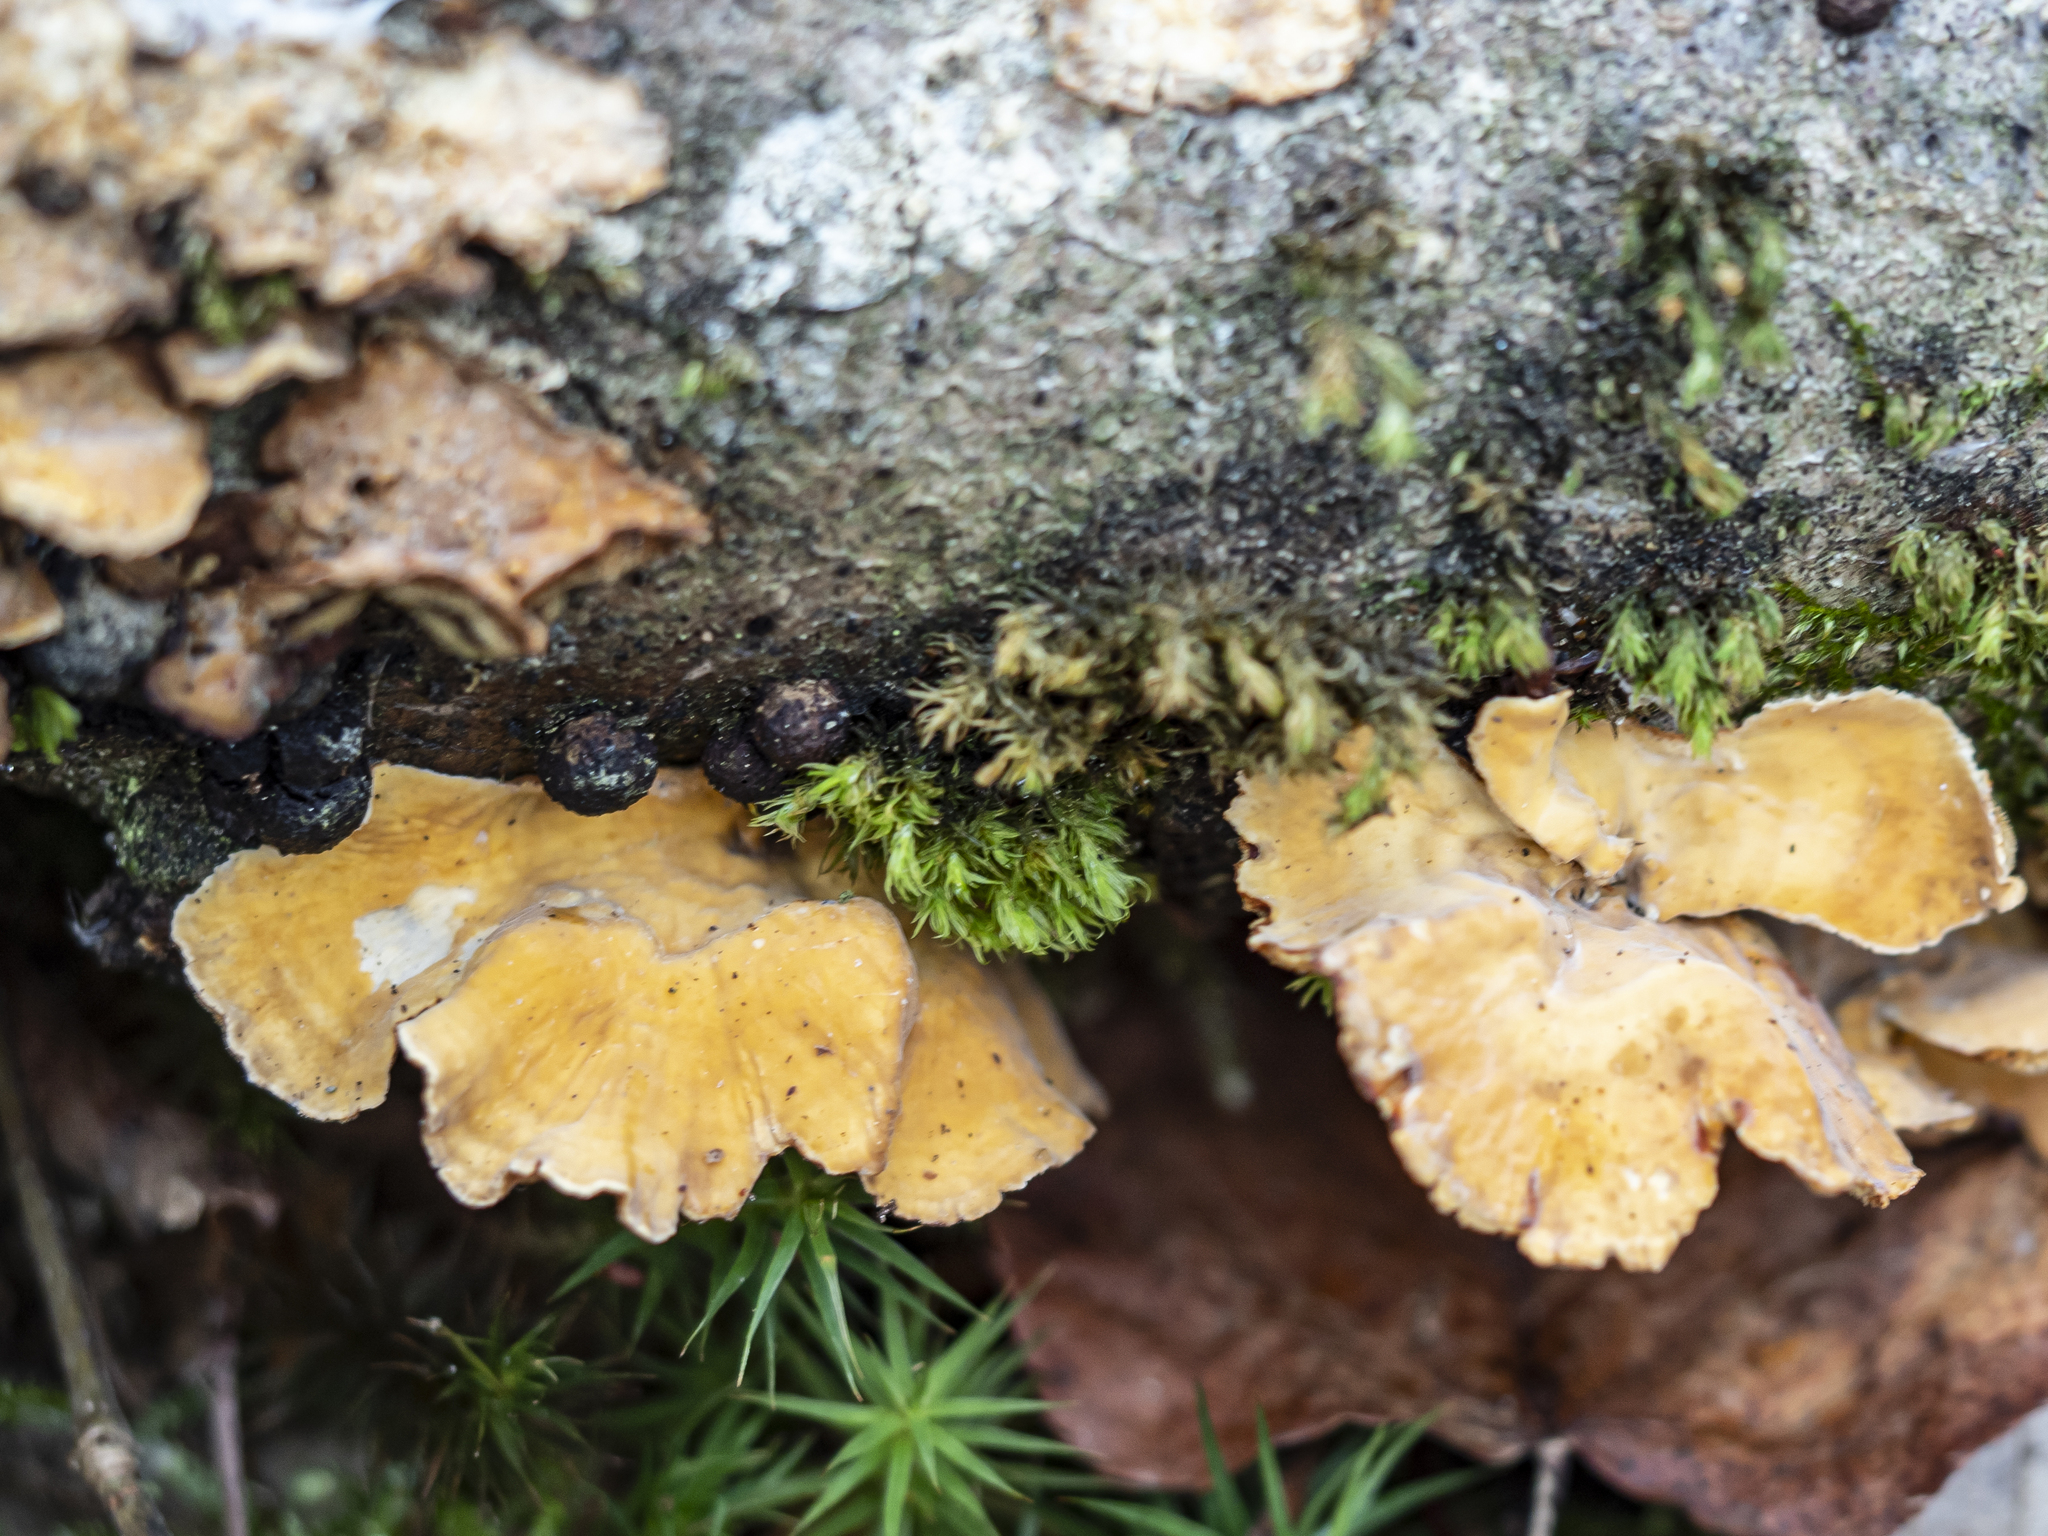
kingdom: Fungi
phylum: Basidiomycota
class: Agaricomycetes
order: Russulales
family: Stereaceae
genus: Stereum
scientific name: Stereum hirsutum
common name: Hairy curtain crust
